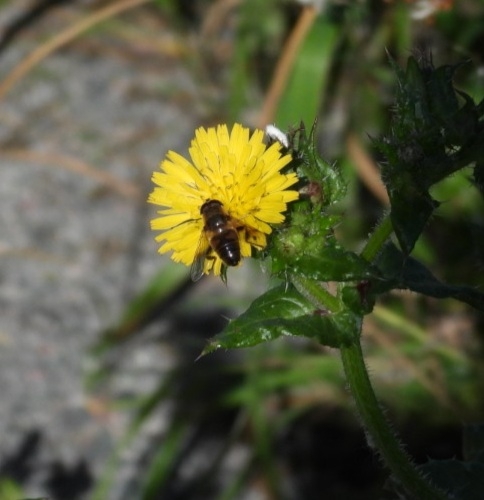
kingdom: Animalia
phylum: Arthropoda
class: Insecta
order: Diptera
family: Syrphidae
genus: Eristalis
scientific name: Eristalis tenax
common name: Drone fly
